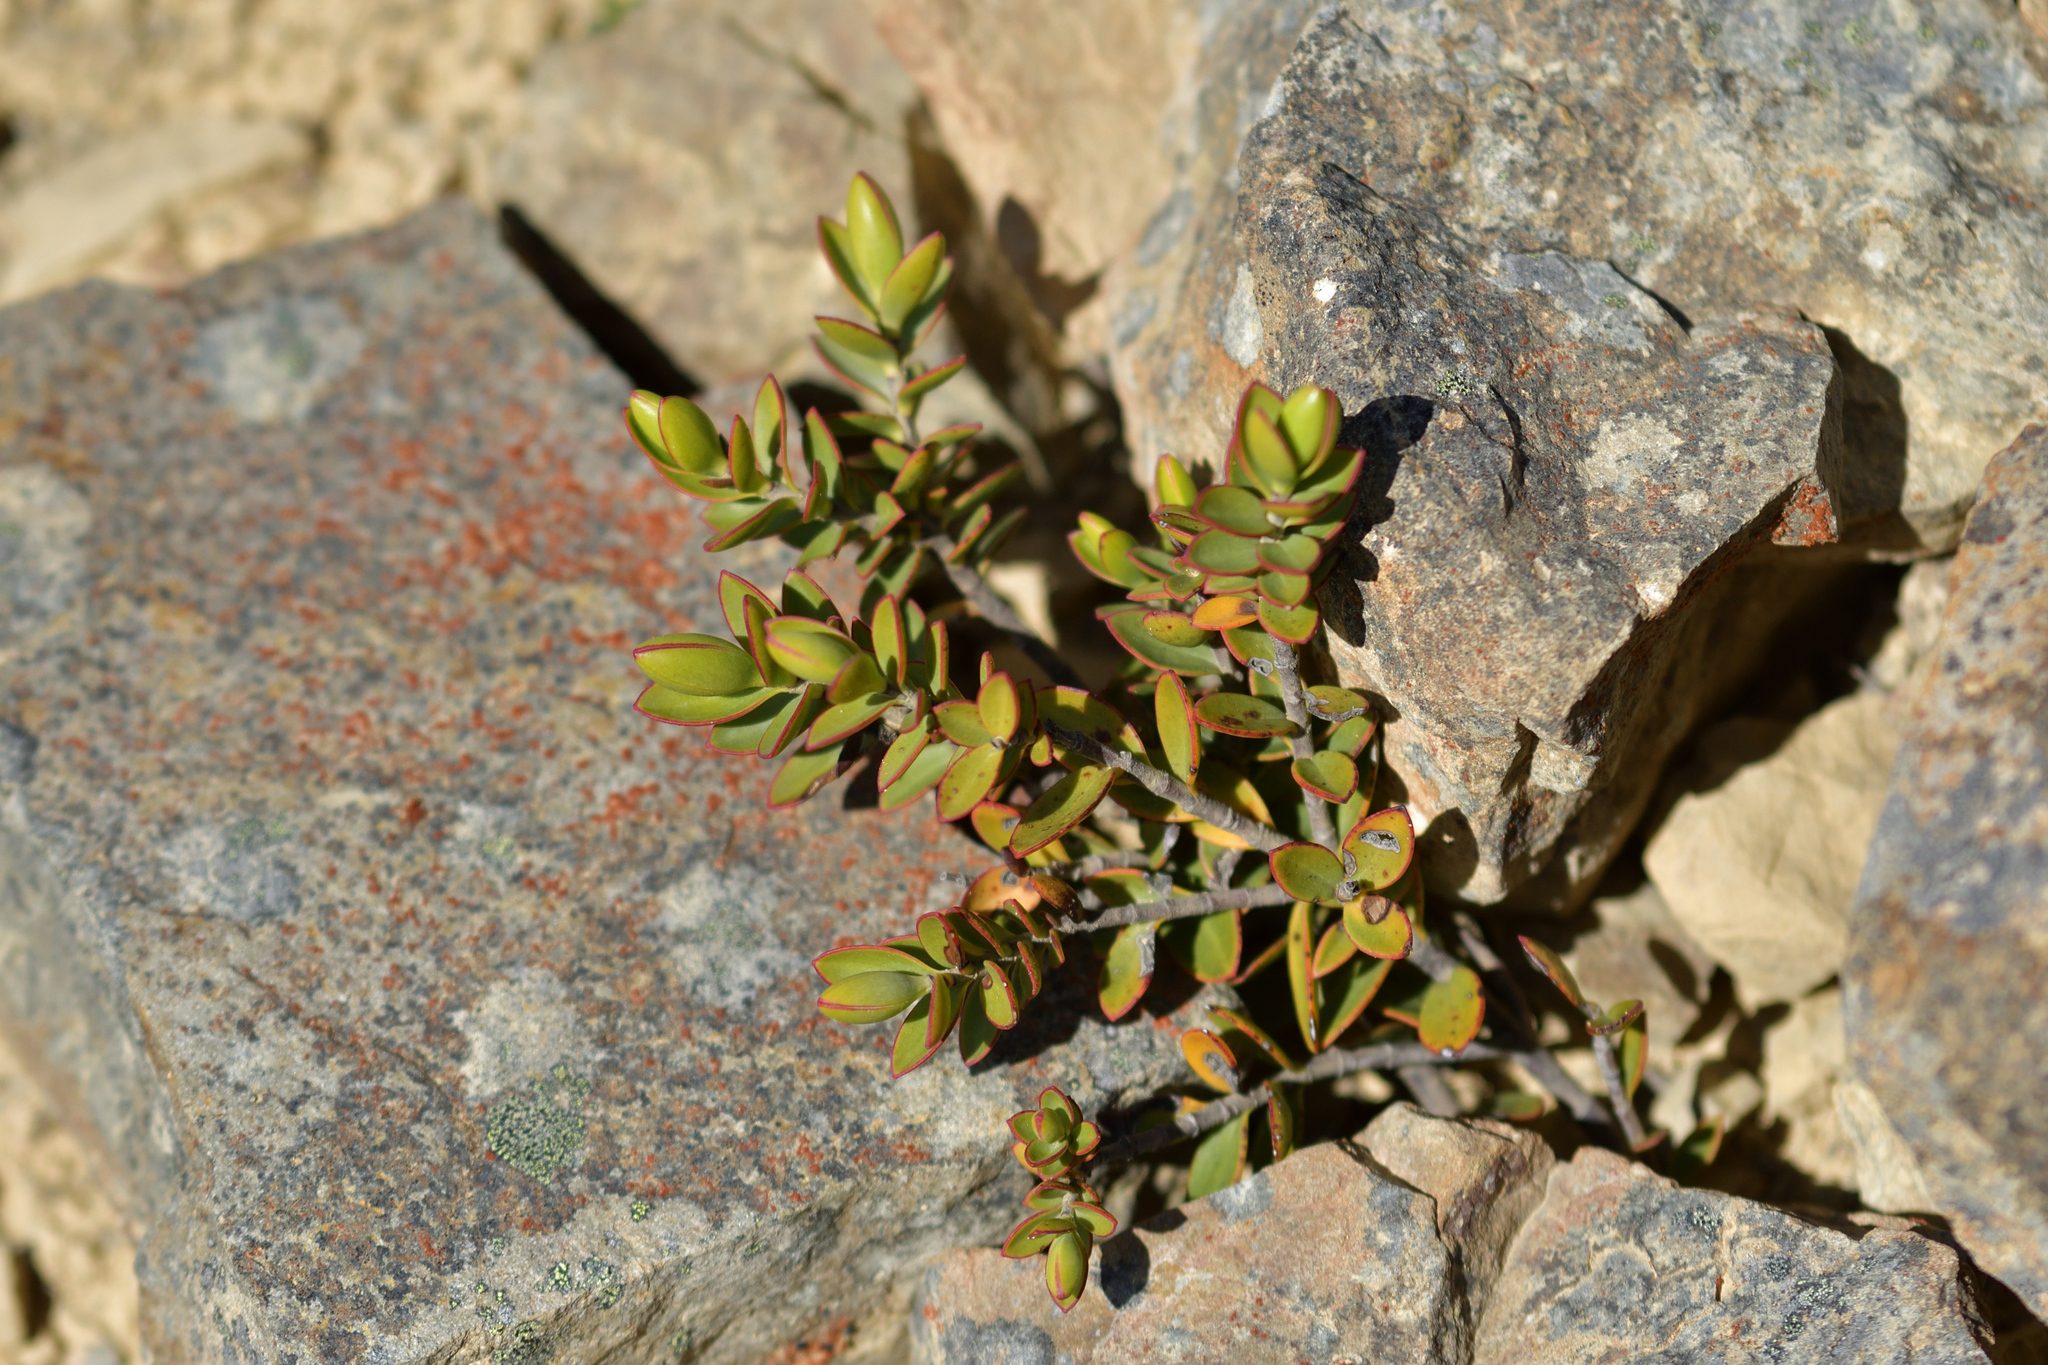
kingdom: Plantae
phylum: Tracheophyta
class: Magnoliopsida
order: Lamiales
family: Plantaginaceae
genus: Veronica
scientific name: Veronica decumbens
